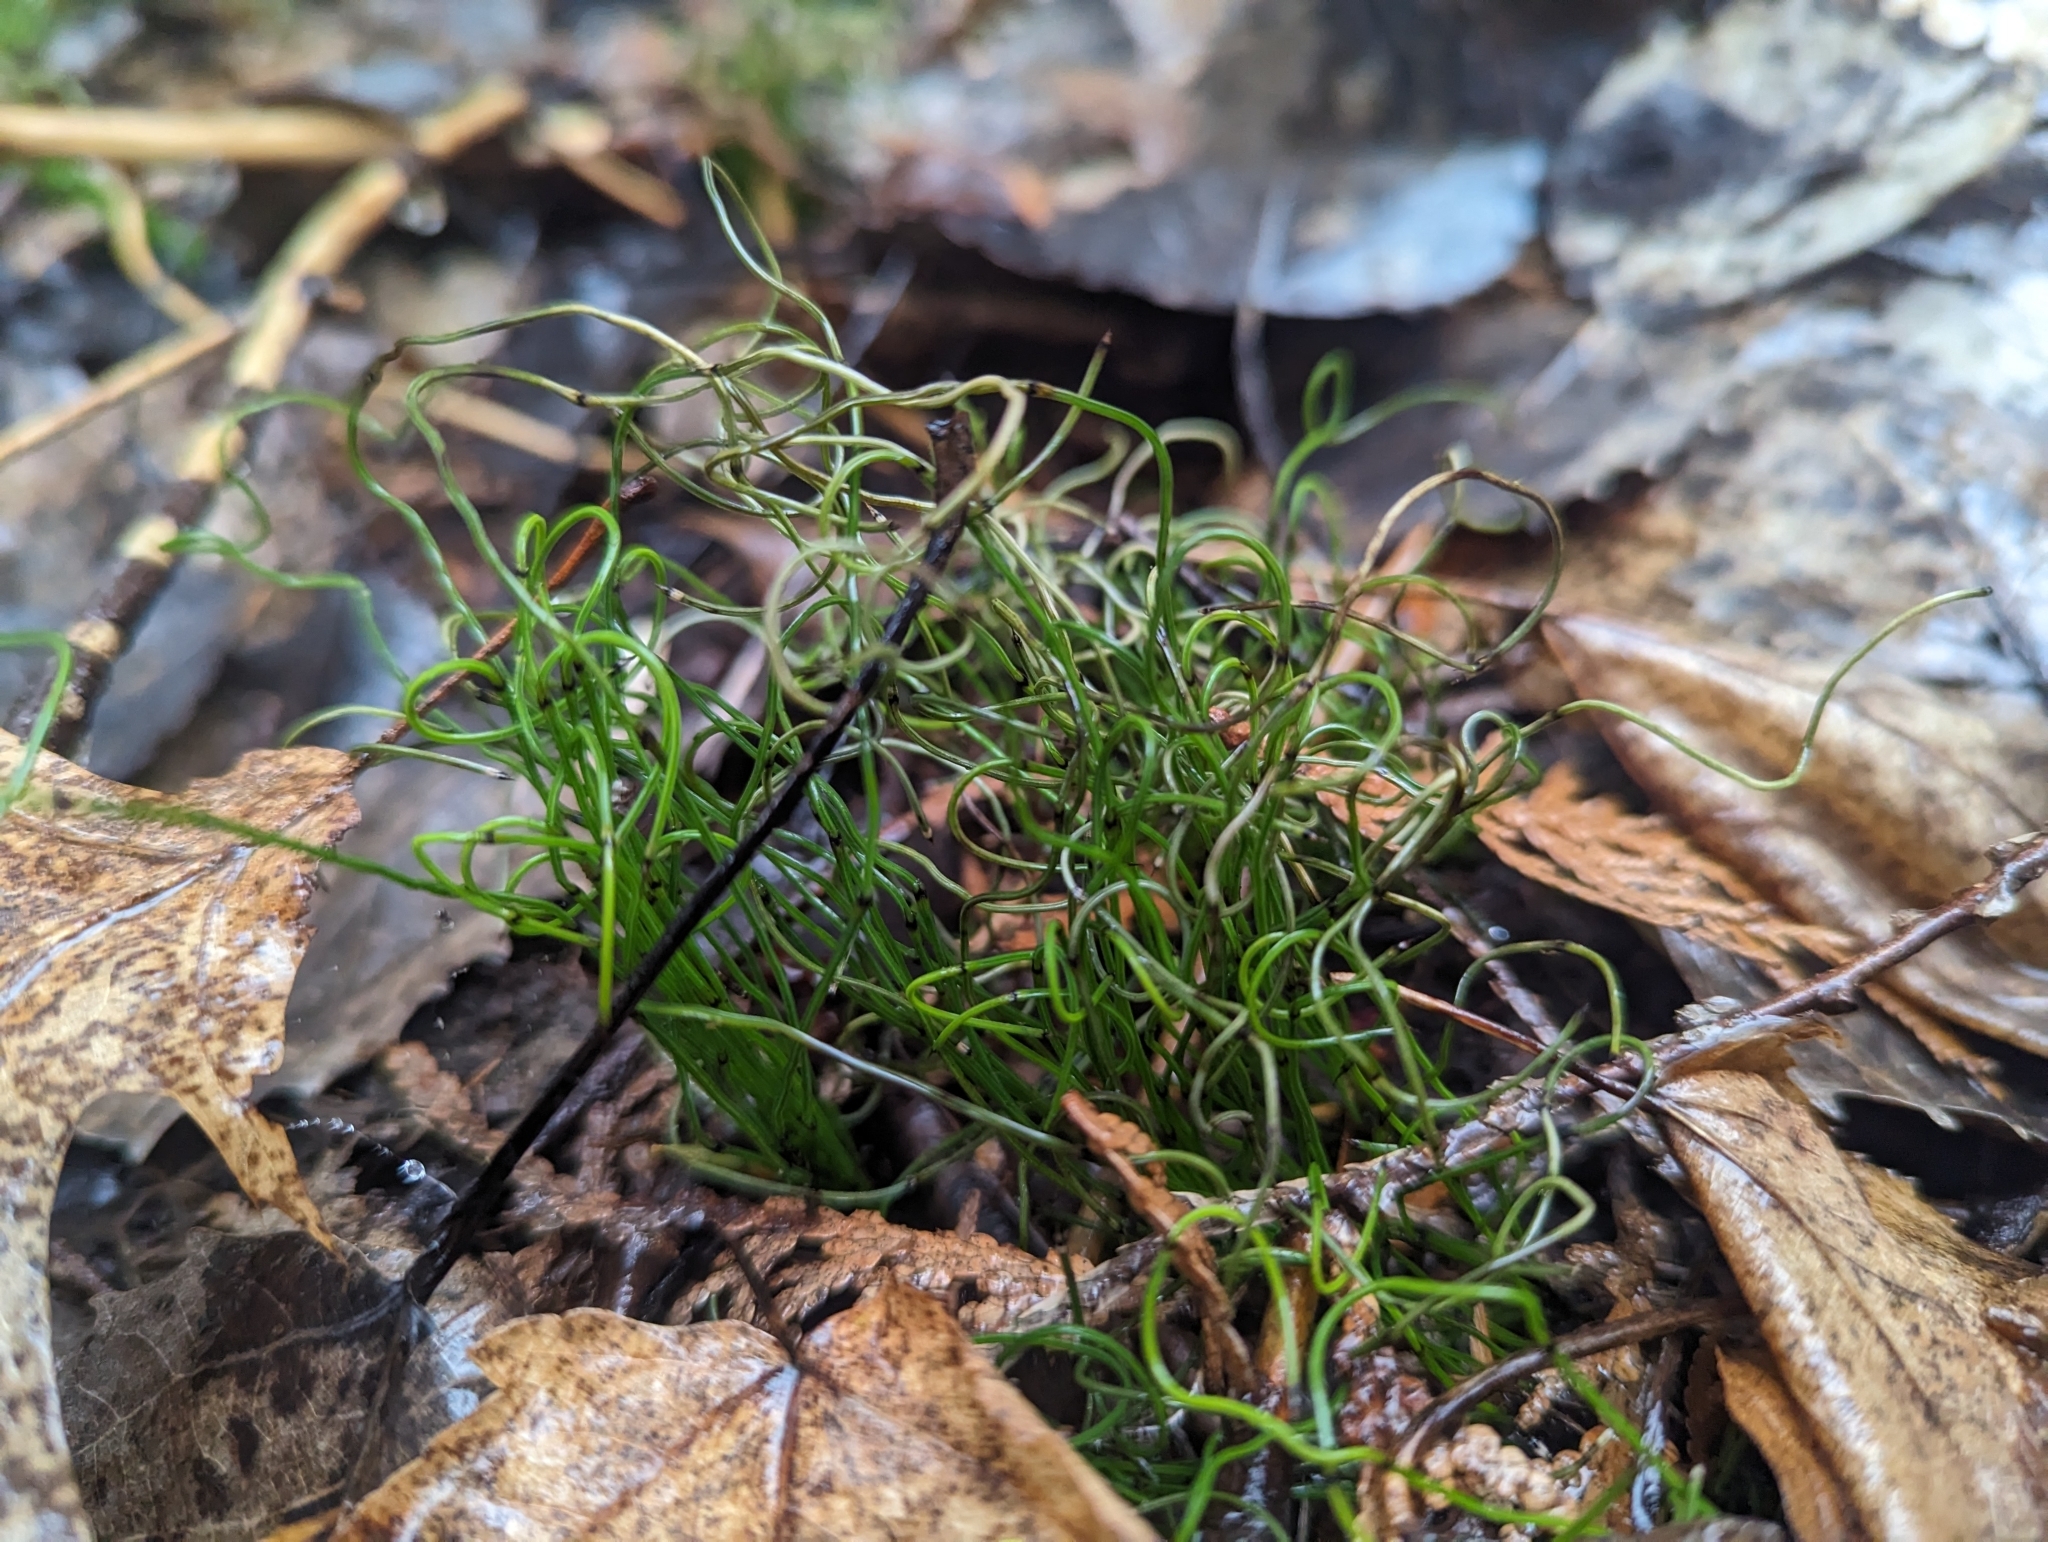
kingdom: Plantae
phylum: Tracheophyta
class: Polypodiopsida
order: Equisetales
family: Equisetaceae
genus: Equisetum
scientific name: Equisetum scirpoides
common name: Delicate horsetail
